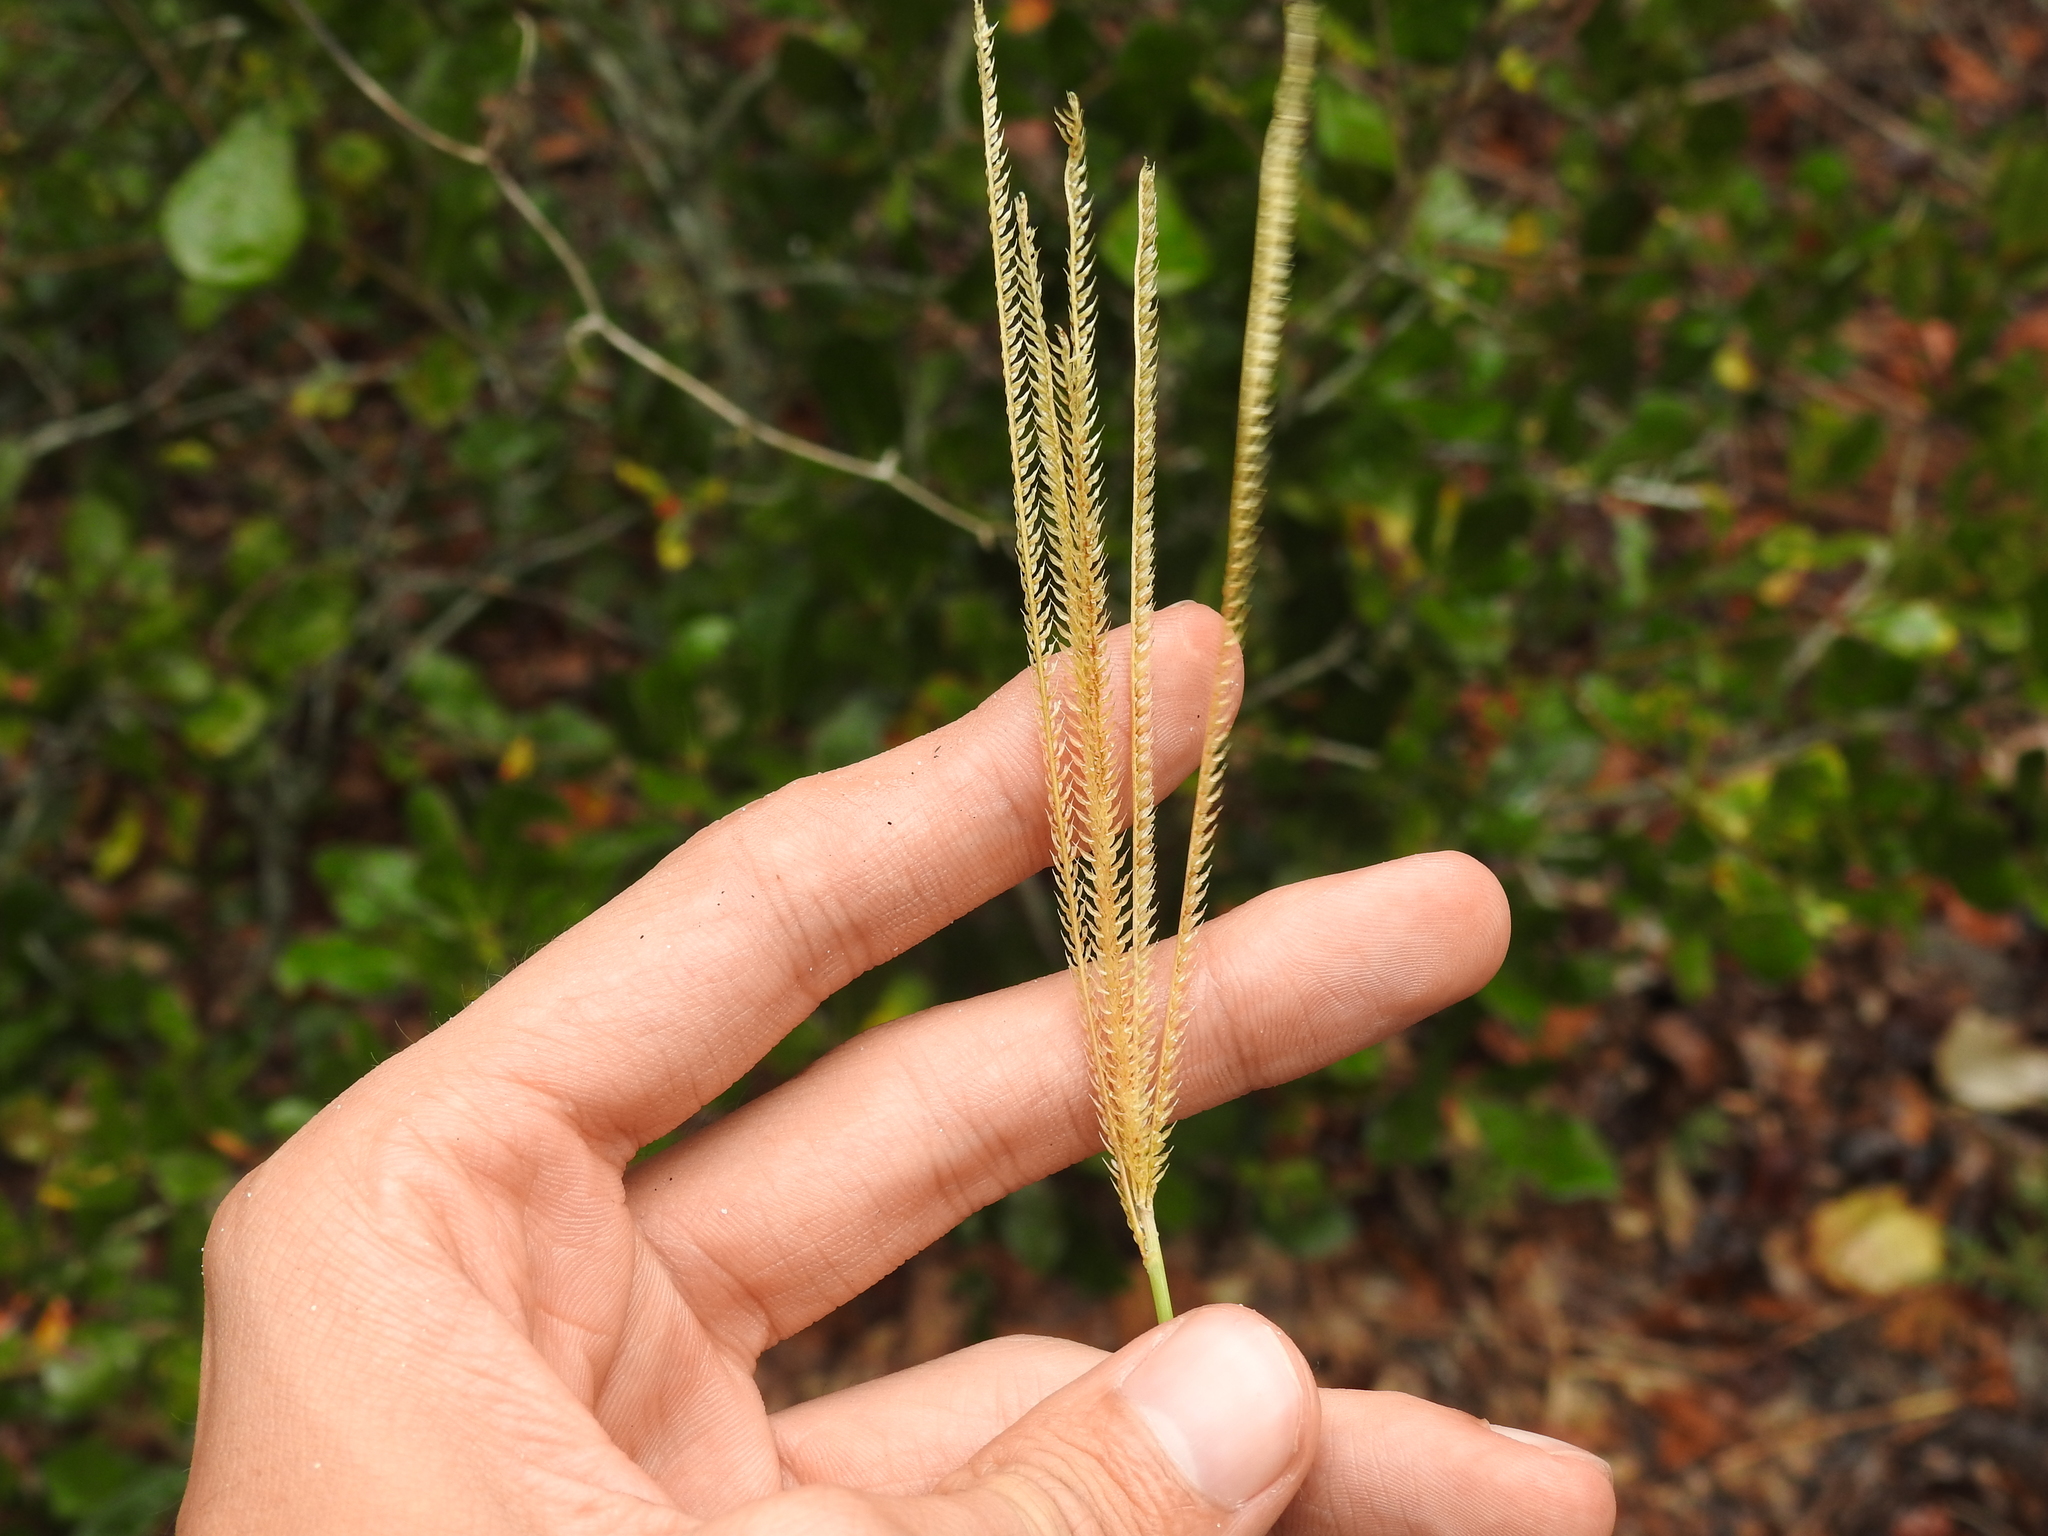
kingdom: Plantae
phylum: Tracheophyta
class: Liliopsida
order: Poales
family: Poaceae
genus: Eustachys
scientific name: Eustachys petraea
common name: Pinewoods fingergrass
